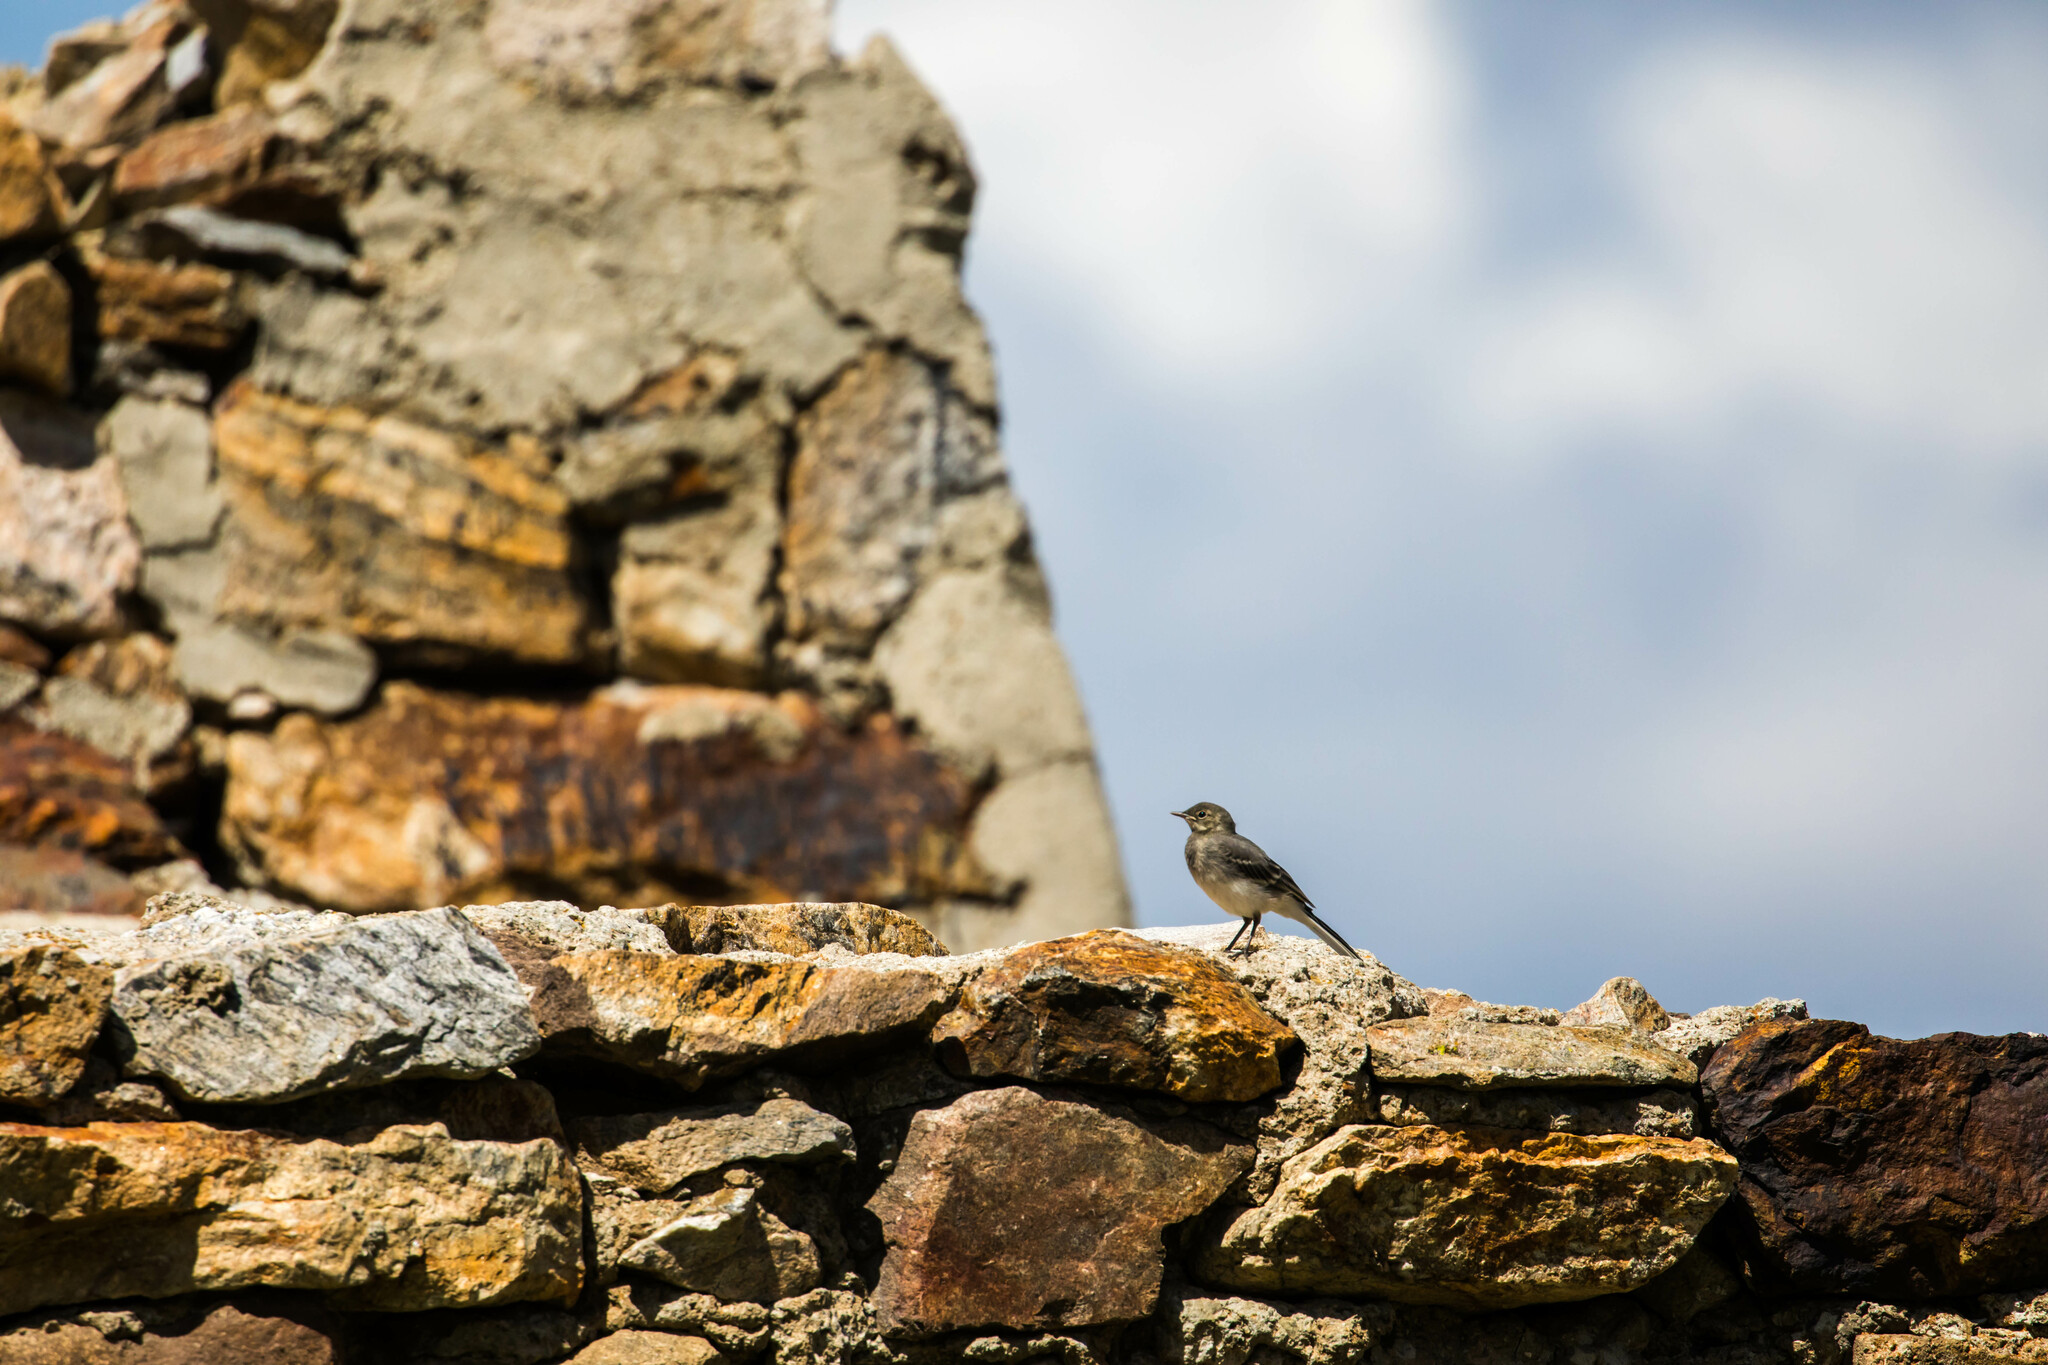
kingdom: Animalia
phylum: Chordata
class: Aves
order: Passeriformes
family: Motacillidae
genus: Motacilla
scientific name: Motacilla alba
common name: White wagtail
